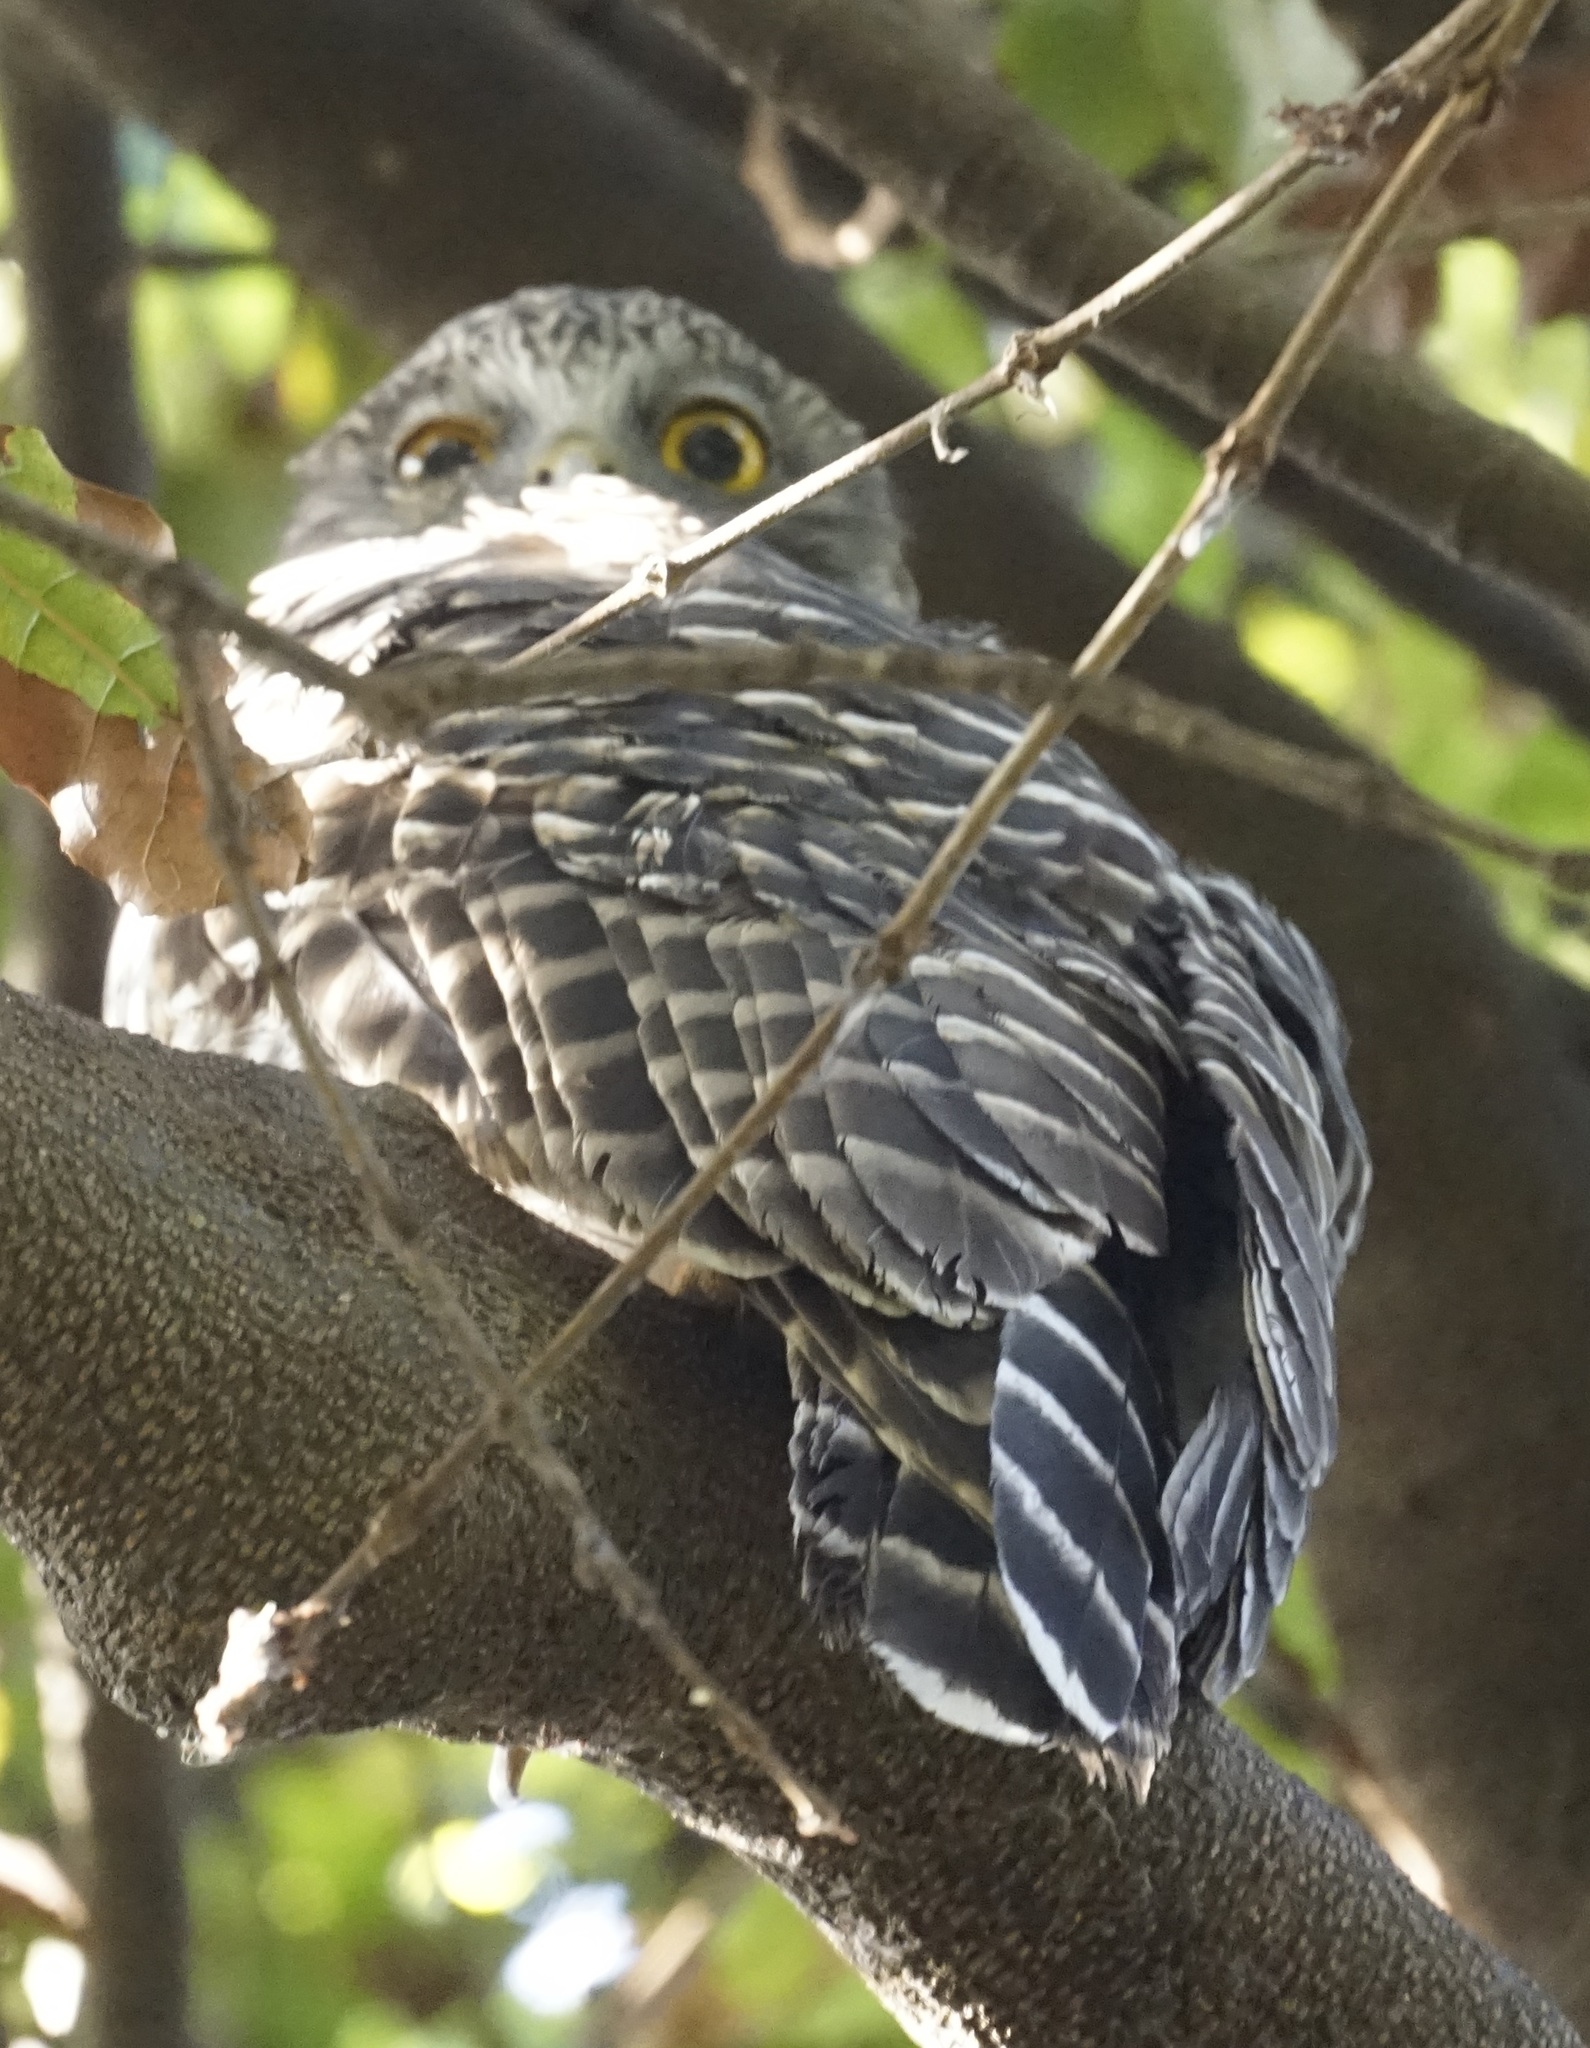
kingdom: Animalia
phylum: Chordata
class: Aves
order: Strigiformes
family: Strigidae
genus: Ninox
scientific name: Ninox strenua
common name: Powerful owl
